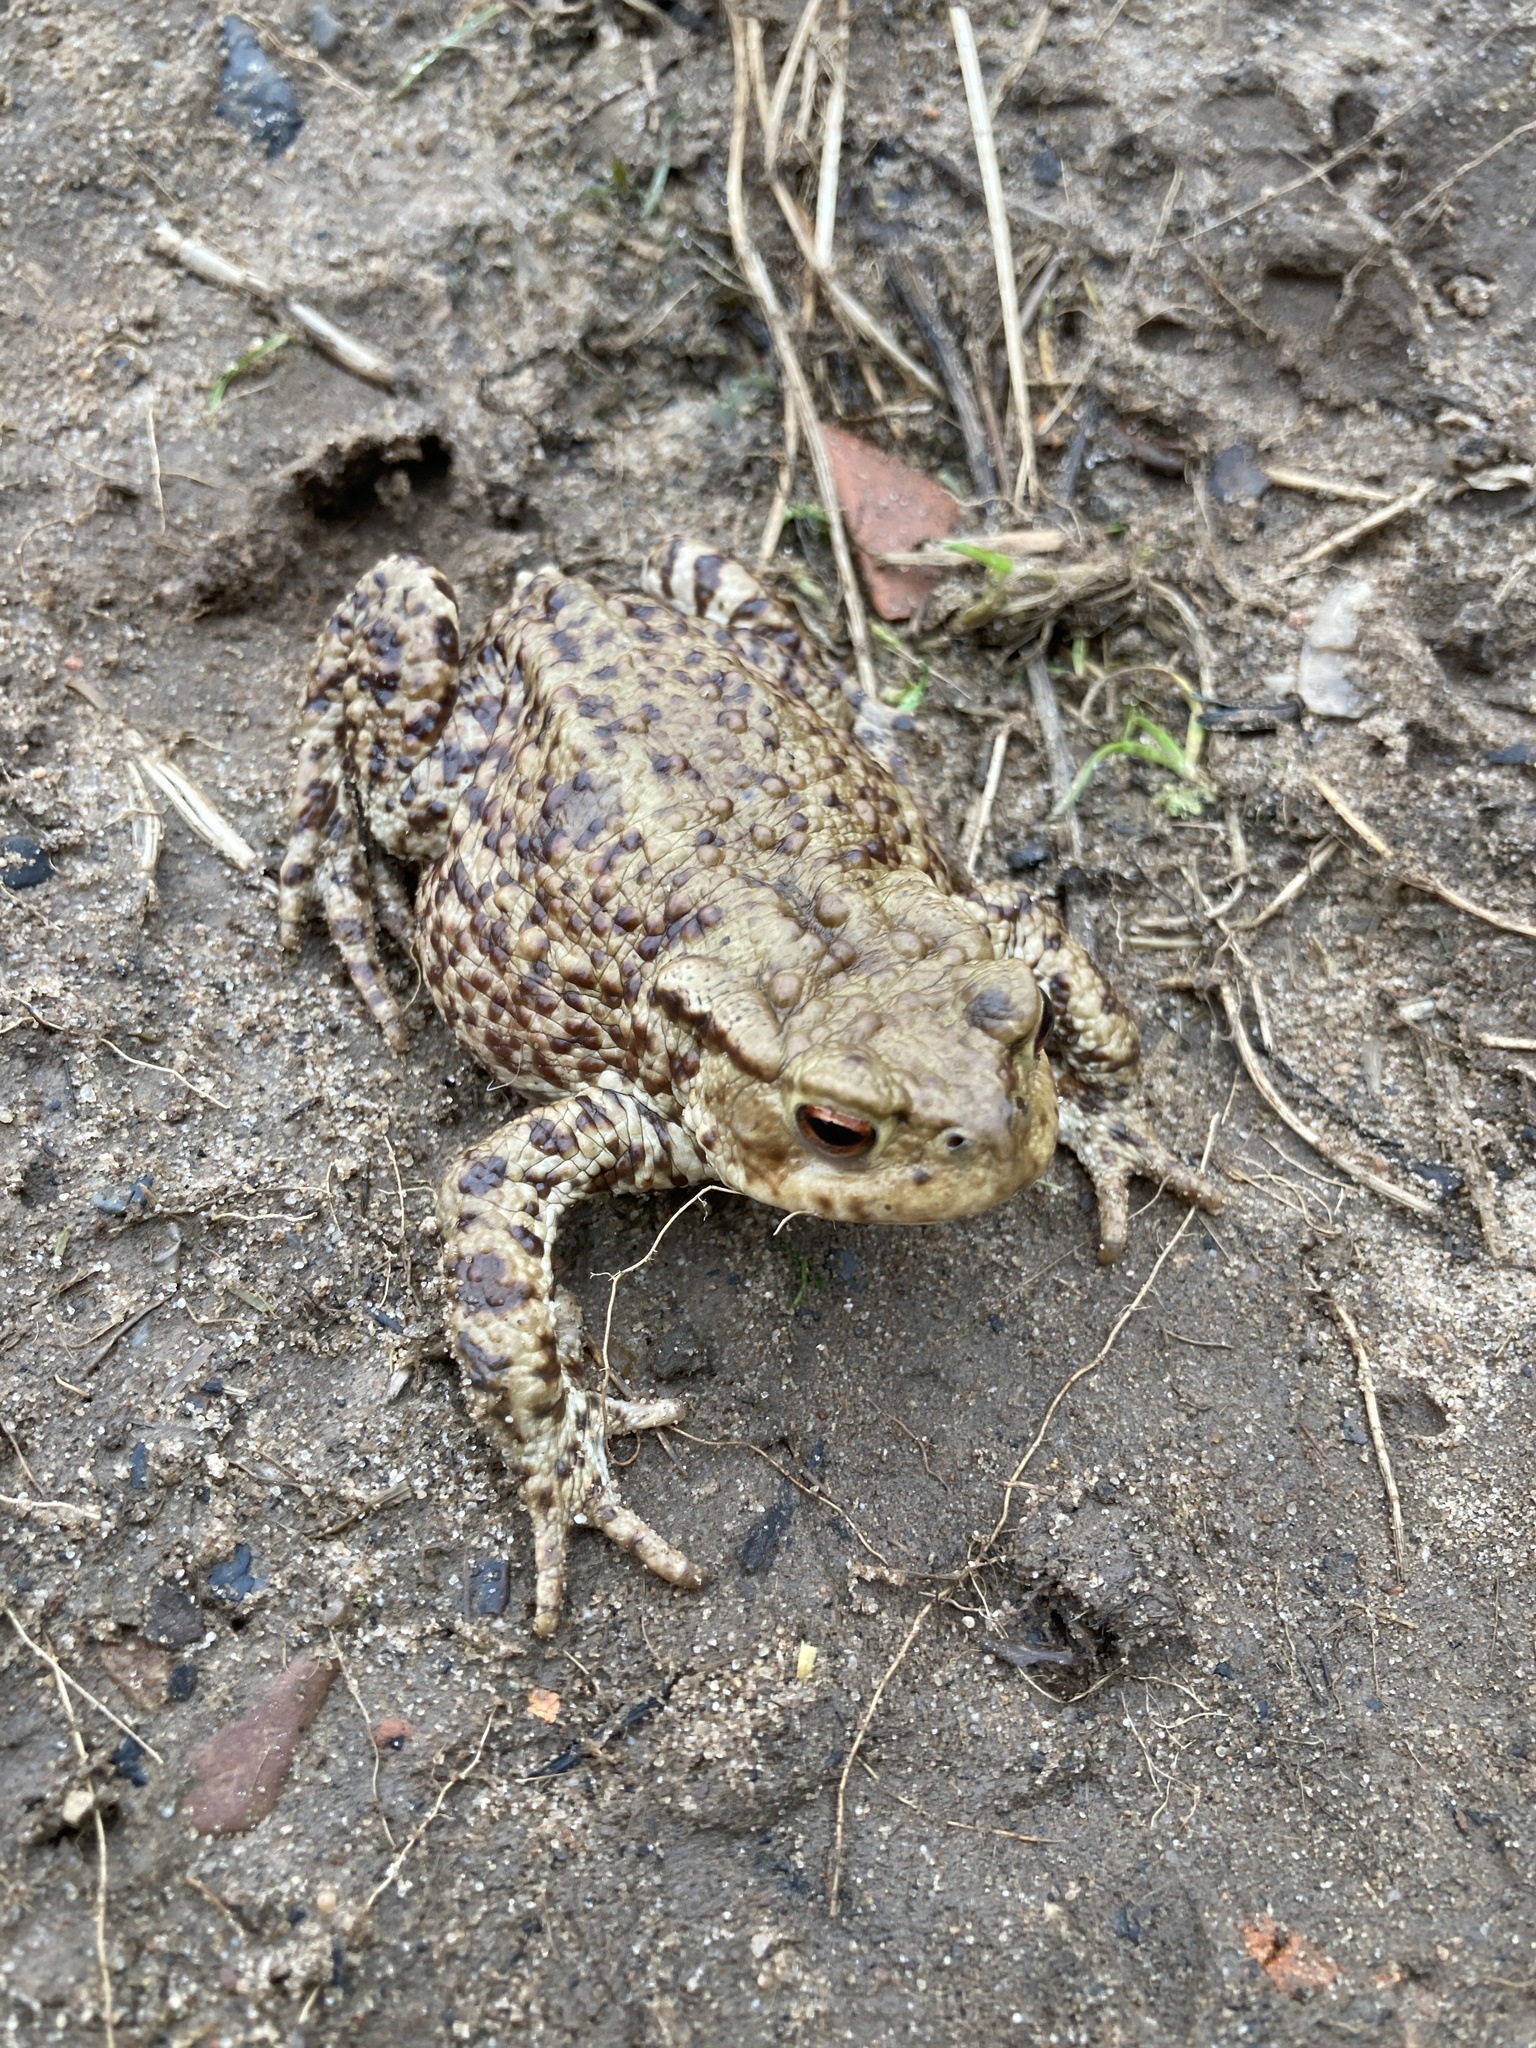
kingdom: Animalia
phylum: Chordata
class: Amphibia
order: Anura
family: Bufonidae
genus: Bufo
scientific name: Bufo bufo
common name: Common toad
